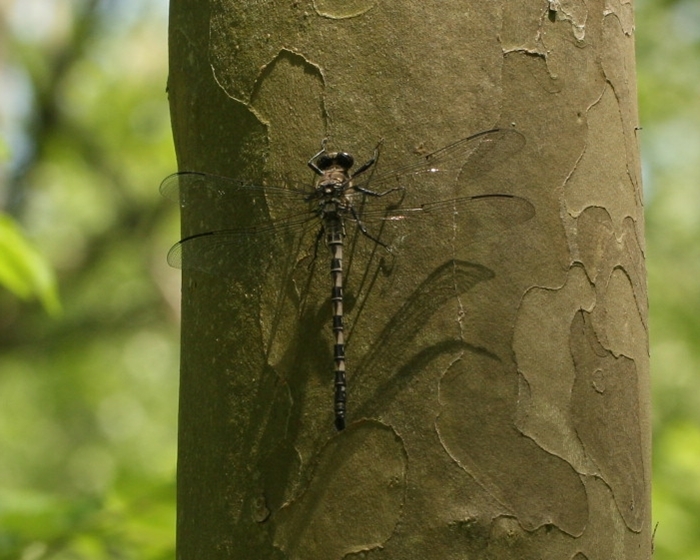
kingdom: Animalia
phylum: Arthropoda
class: Insecta
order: Odonata
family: Petaluridae
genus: Tachopteryx
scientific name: Tachopteryx thoreyi
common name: Gray petaltail
